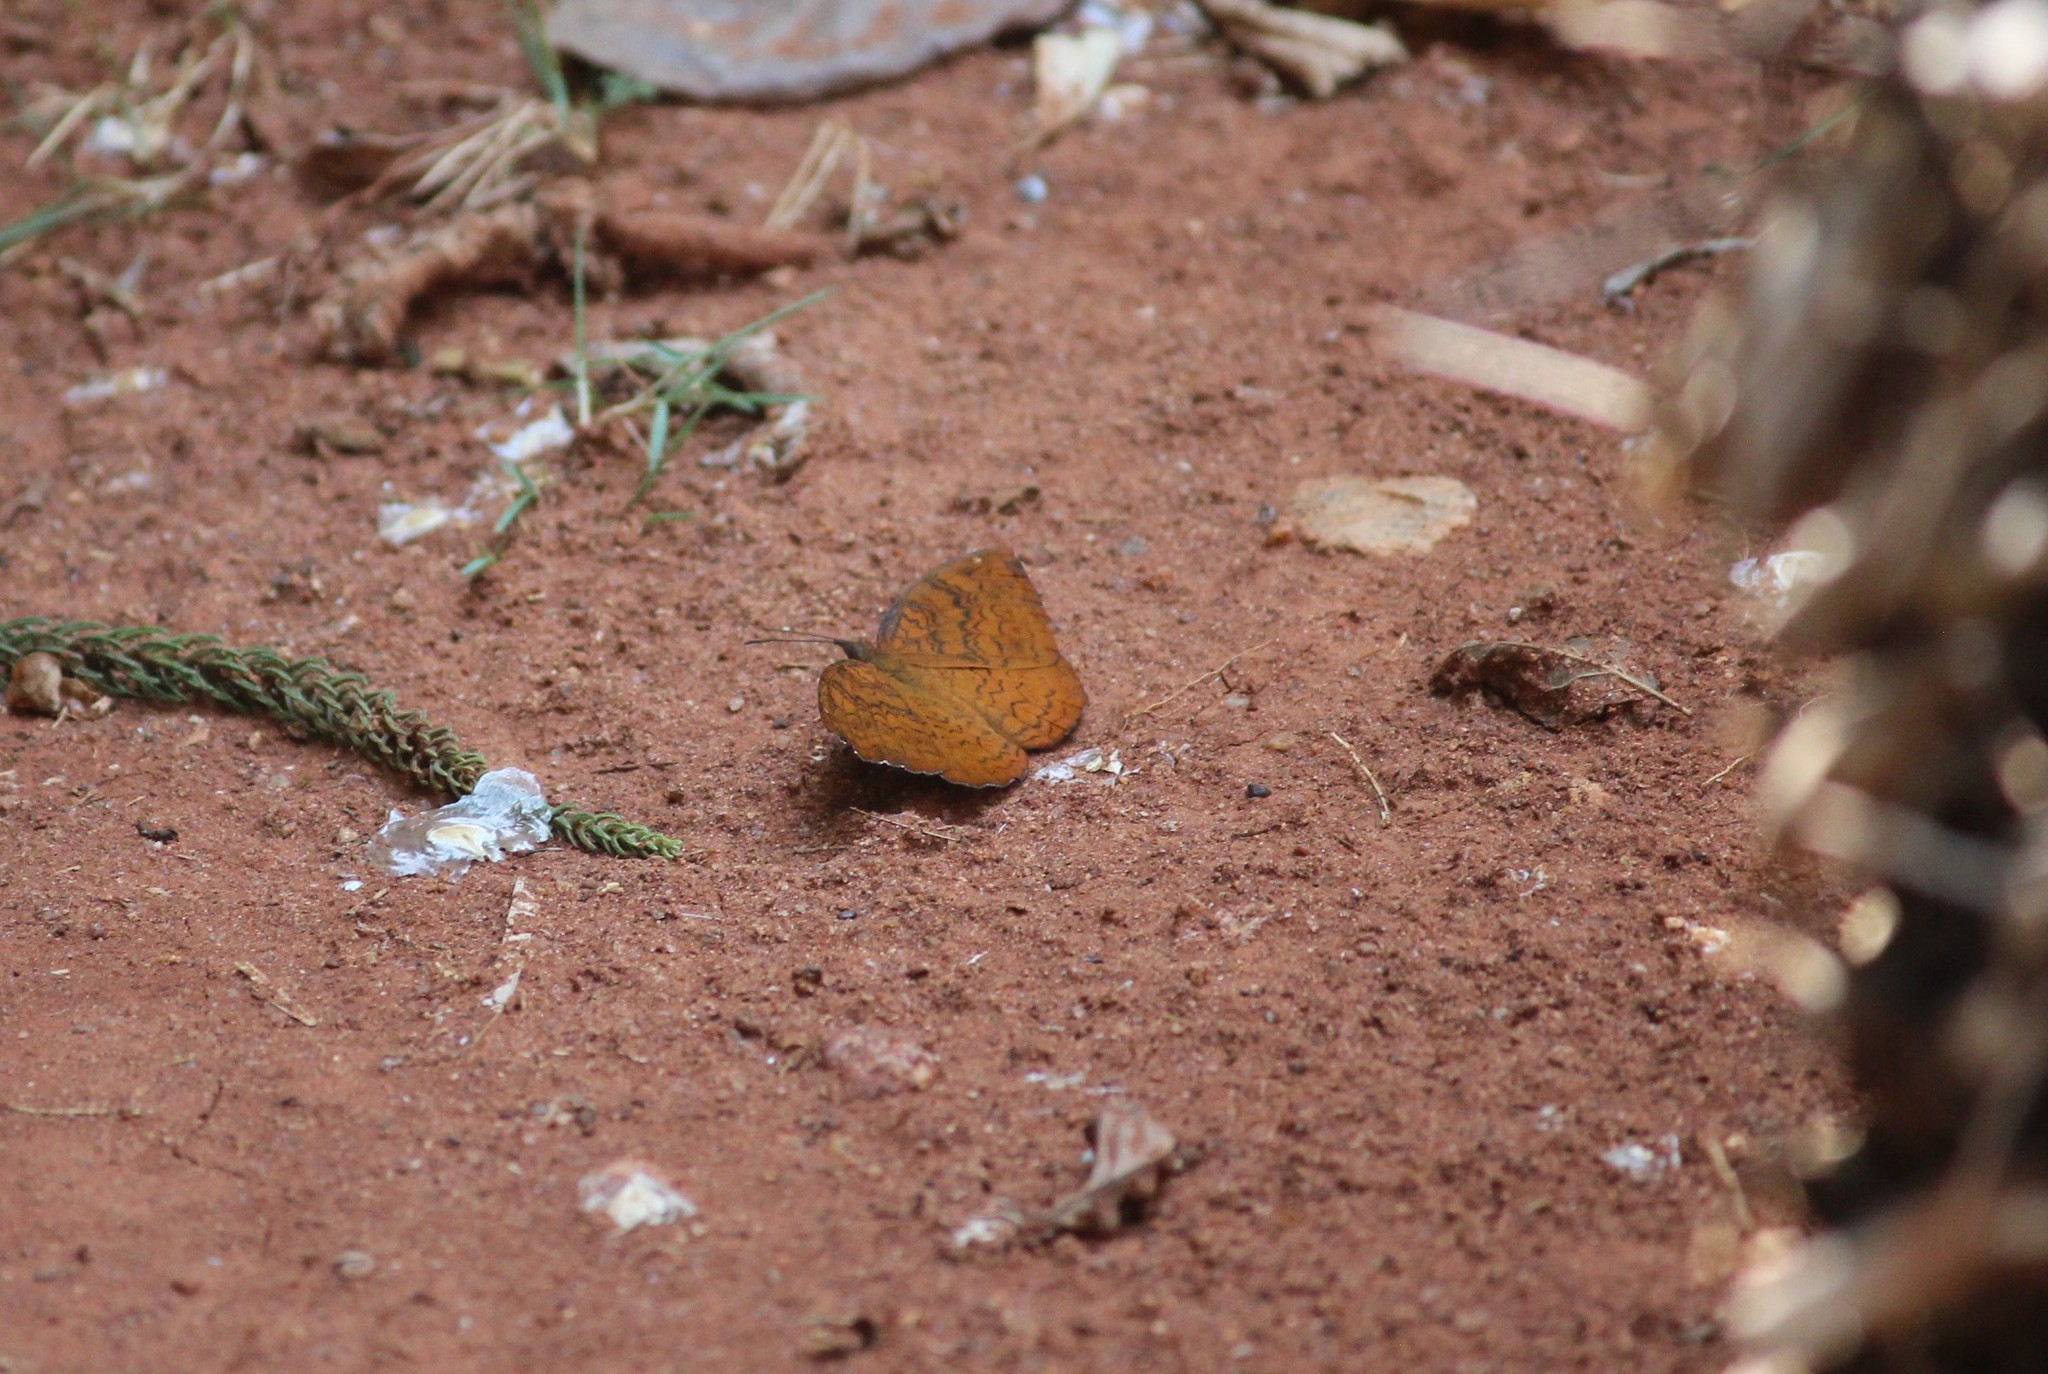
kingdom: Animalia
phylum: Arthropoda
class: Insecta
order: Lepidoptera
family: Nymphalidae
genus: Ariadne
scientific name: Ariadne merione
